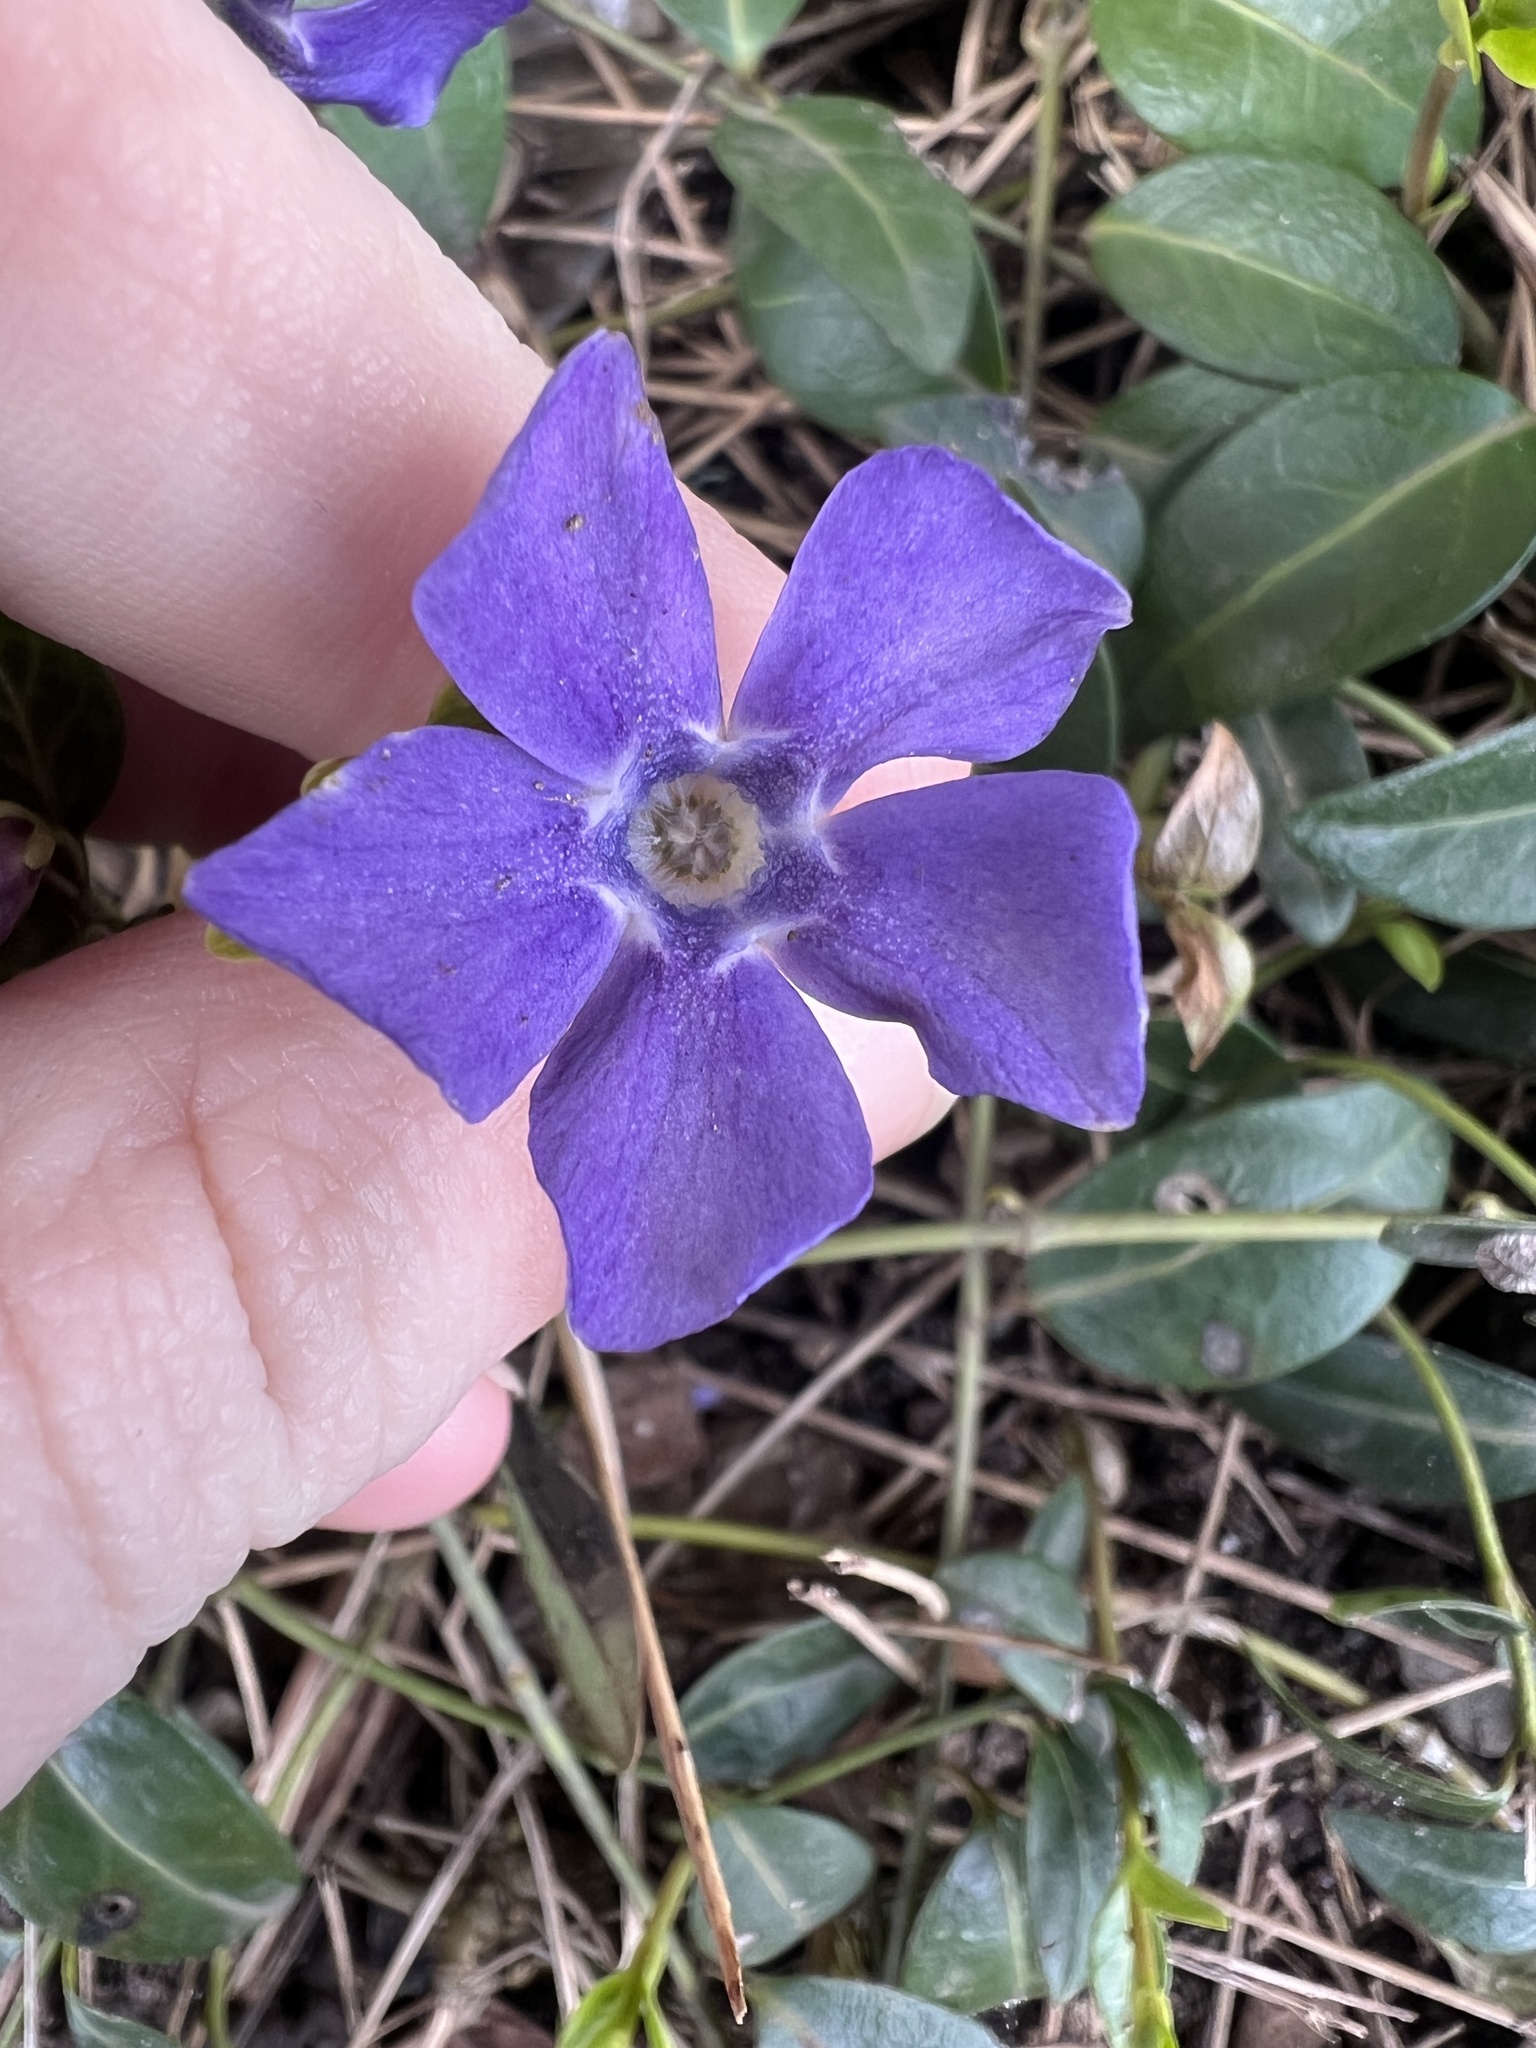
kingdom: Plantae
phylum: Tracheophyta
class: Magnoliopsida
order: Gentianales
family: Apocynaceae
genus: Vinca
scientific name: Vinca minor
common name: Lesser periwinkle
